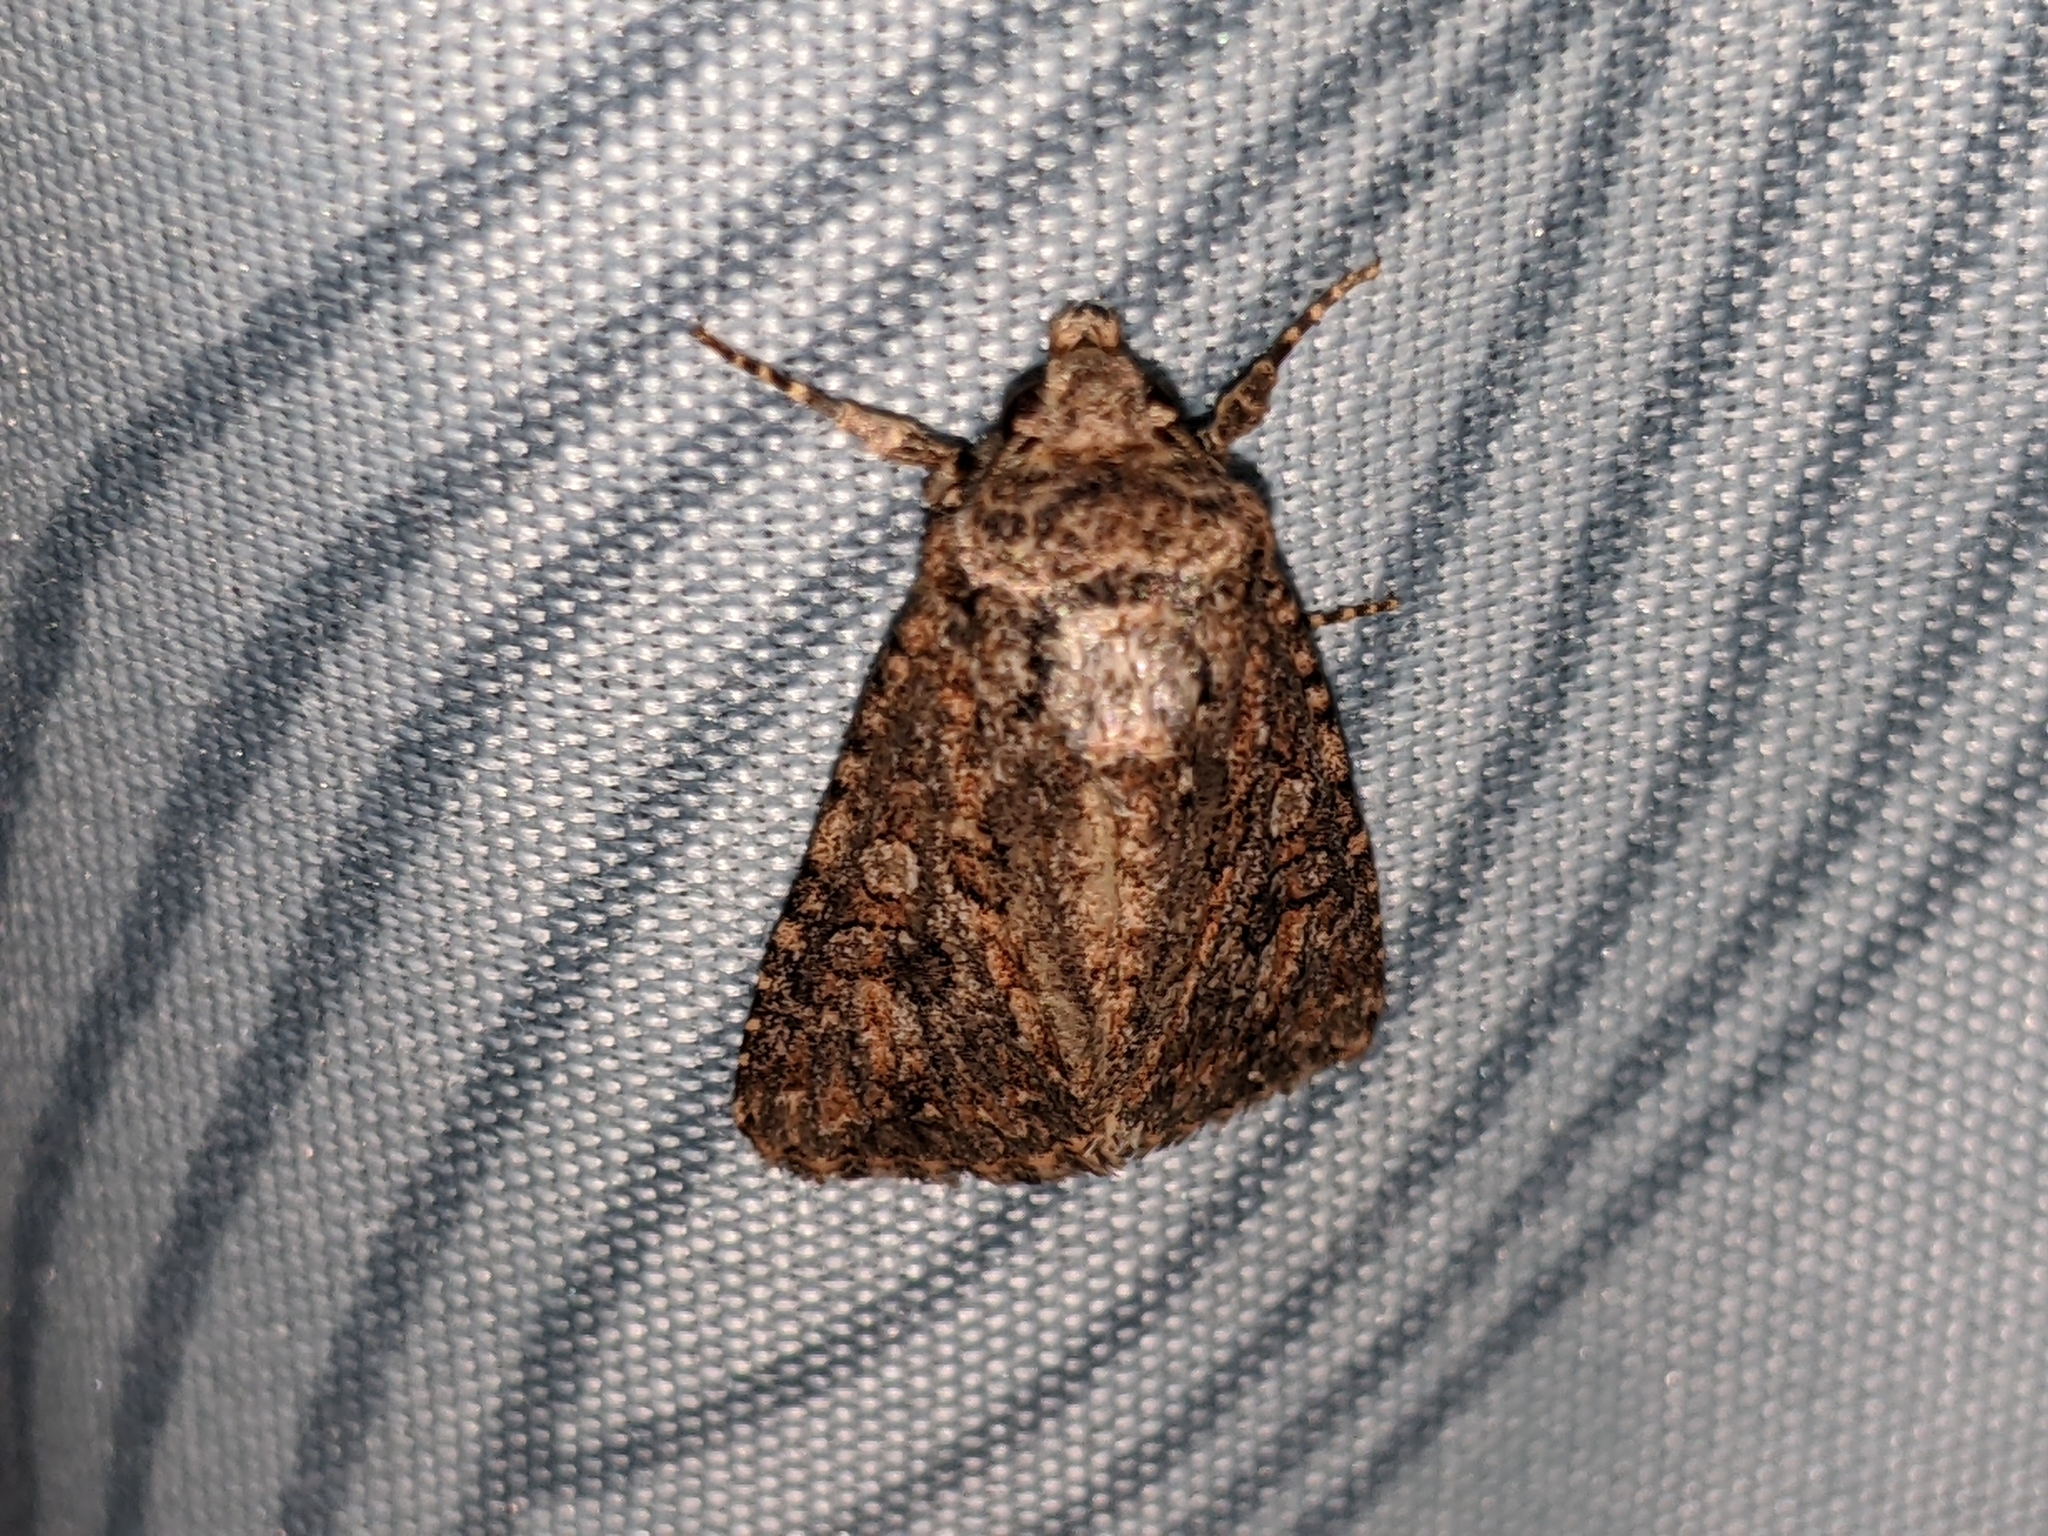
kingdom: Animalia
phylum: Arthropoda
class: Insecta
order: Lepidoptera
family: Noctuidae
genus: Cardepia
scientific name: Cardepia definiens
